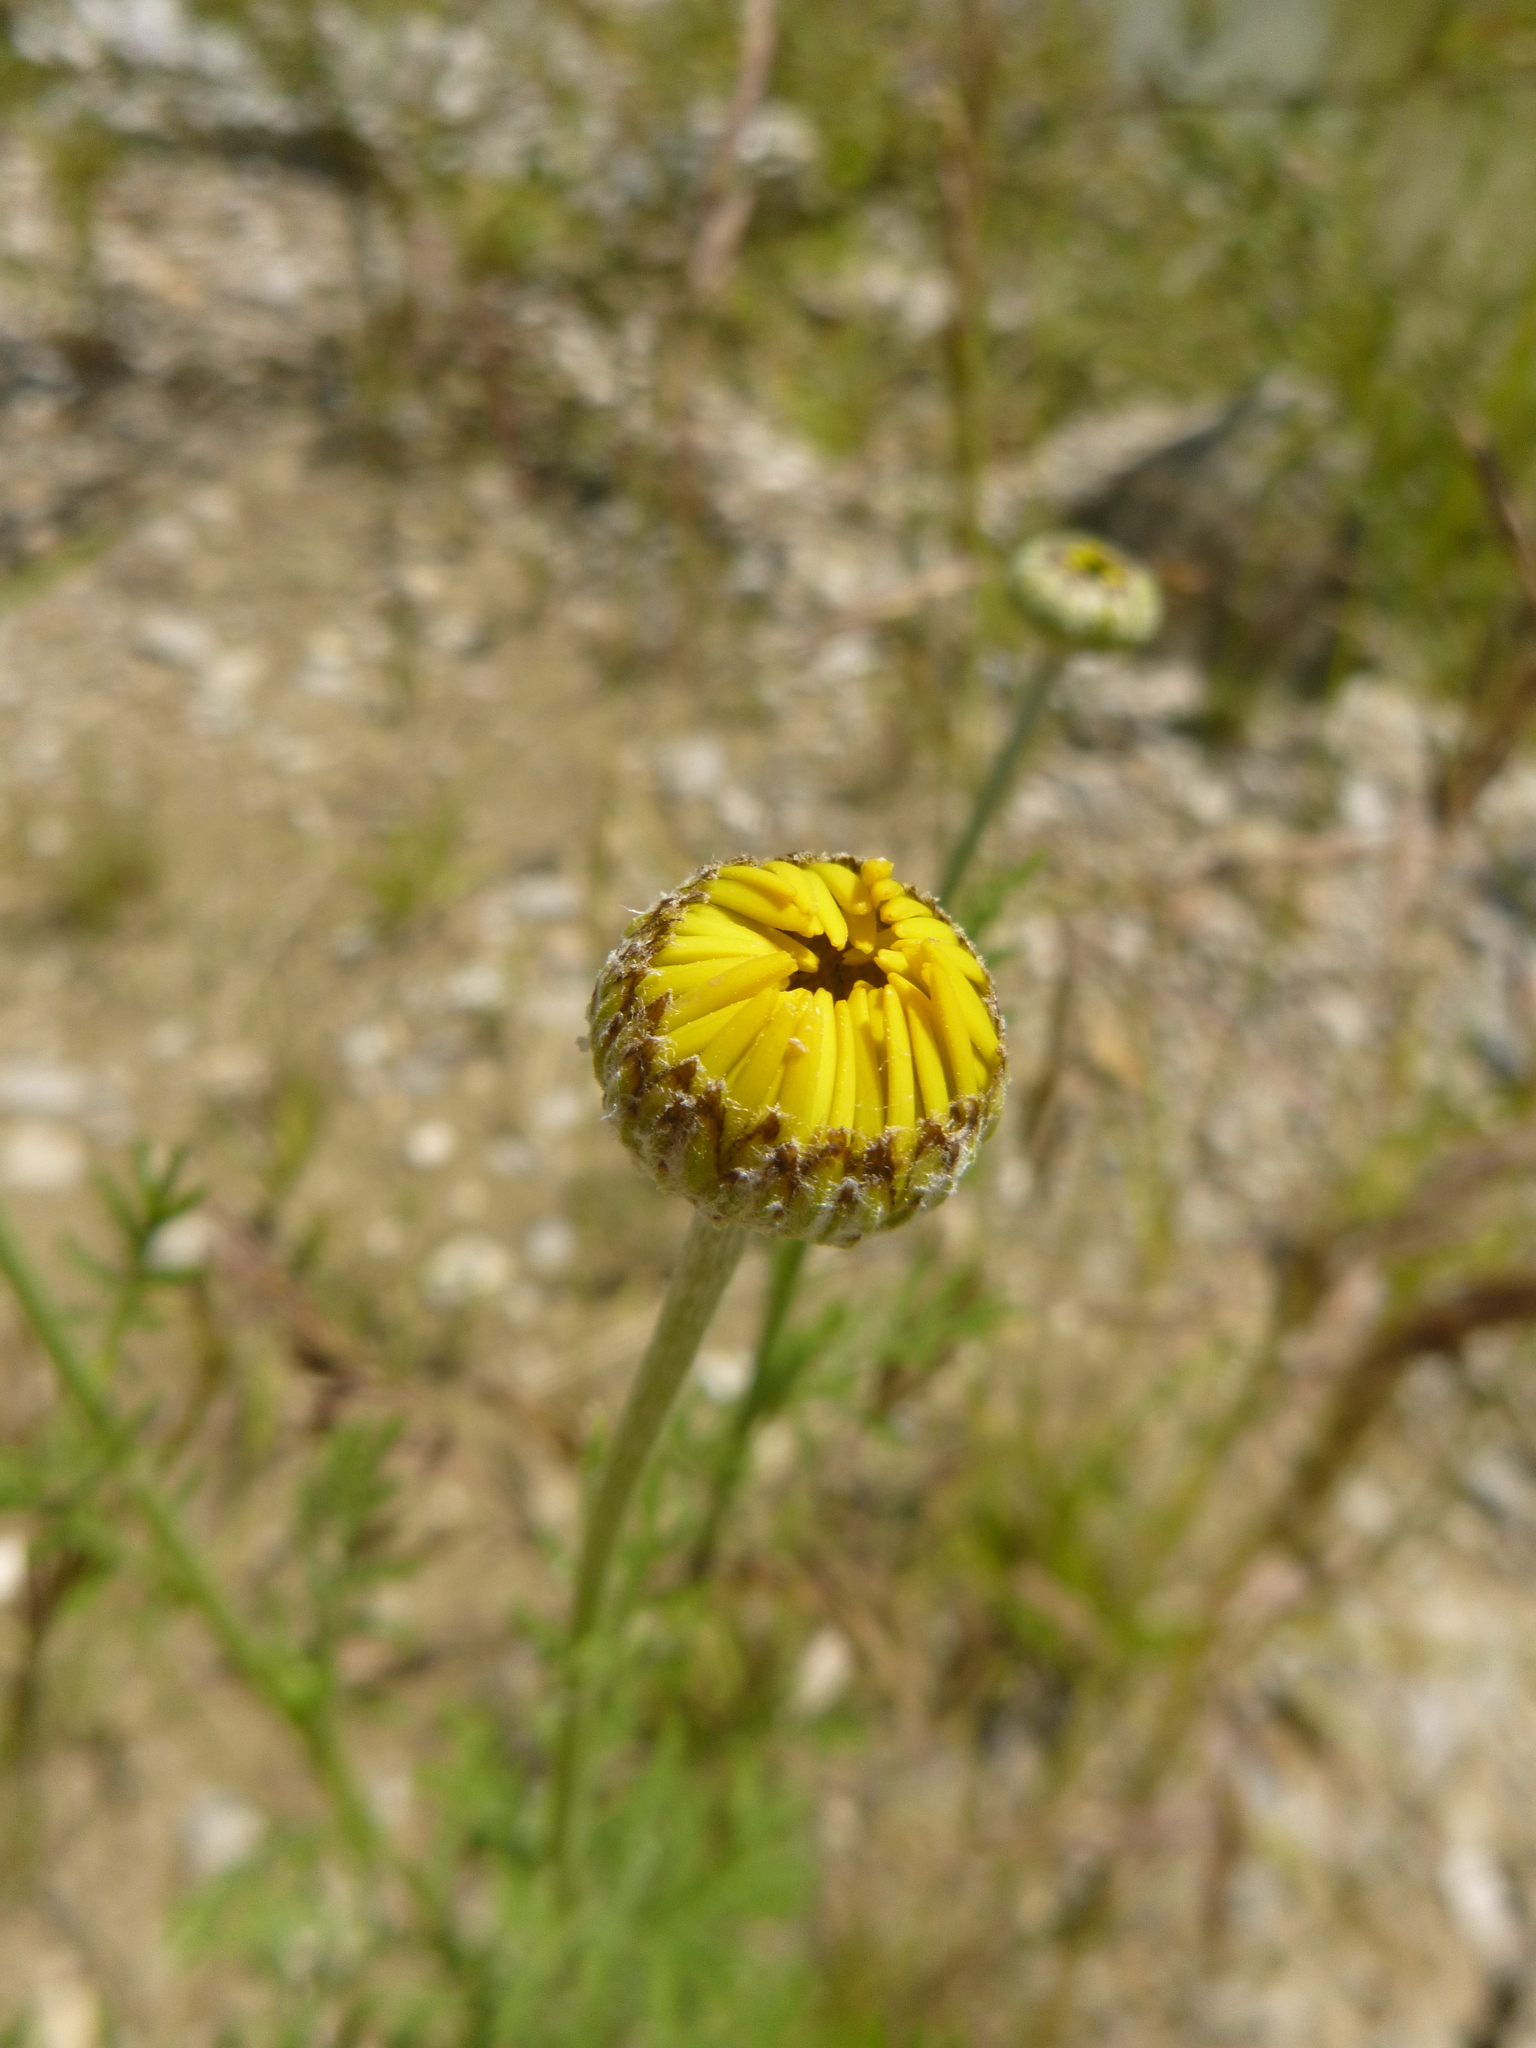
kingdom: Plantae
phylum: Tracheophyta
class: Magnoliopsida
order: Asterales
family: Asteraceae
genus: Cota
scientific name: Cota tinctoria
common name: Golden chamomile
